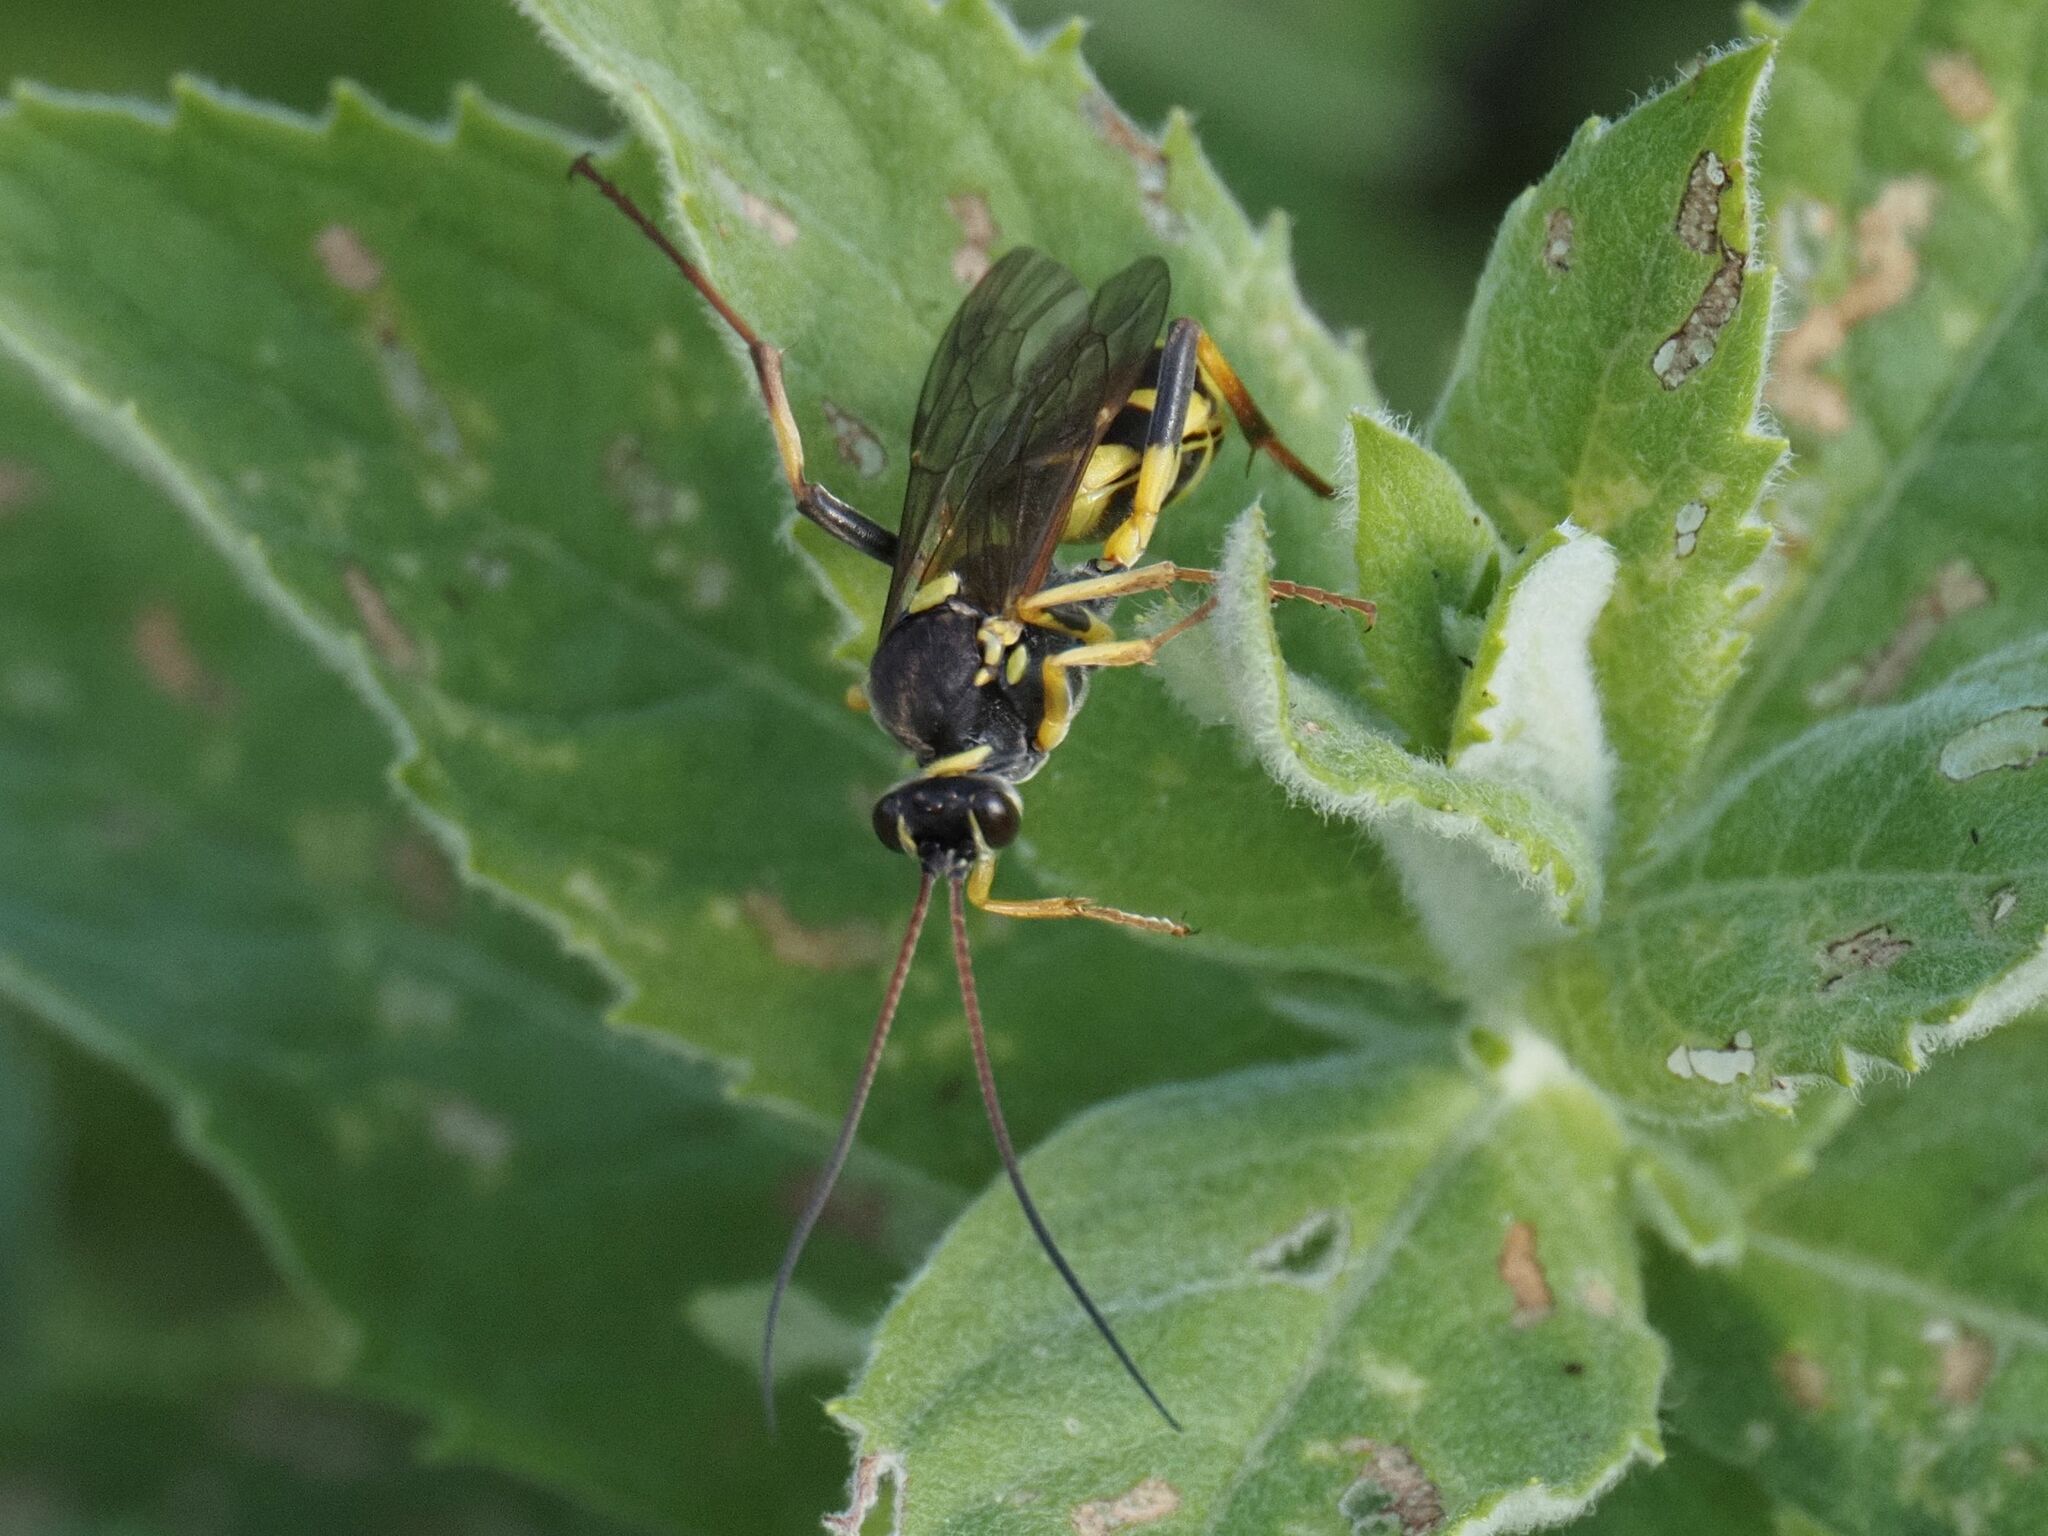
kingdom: Animalia
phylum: Arthropoda
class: Insecta
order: Hymenoptera
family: Ichneumonidae
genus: Amblyteles
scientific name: Amblyteles armatorius
